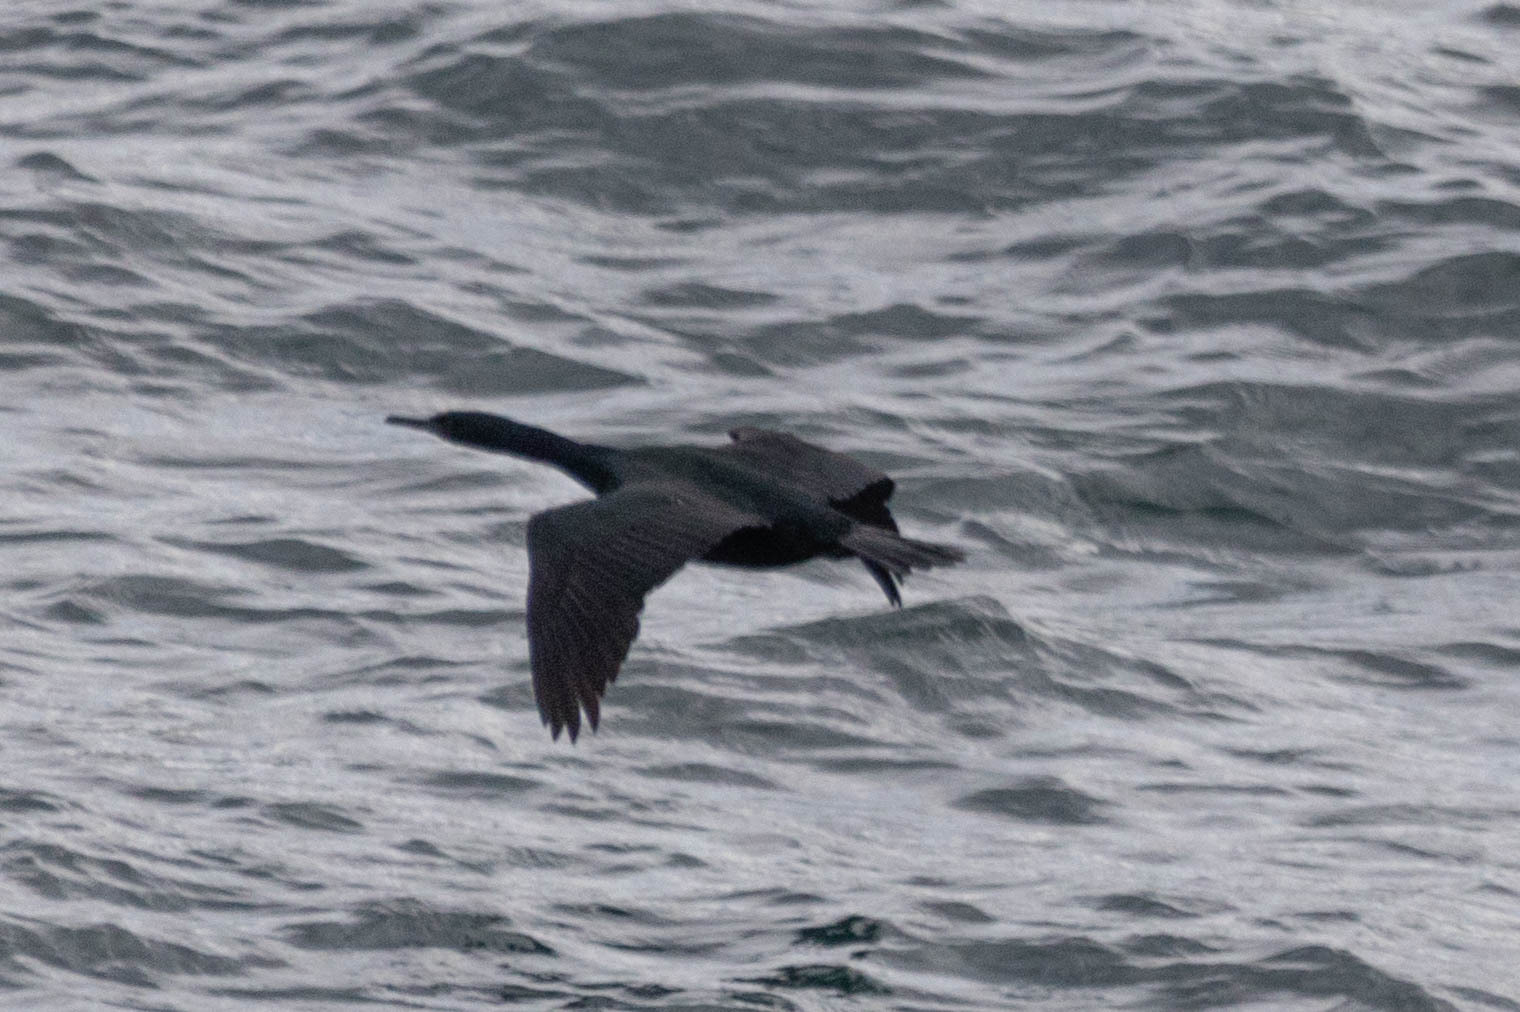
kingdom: Animalia
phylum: Chordata
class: Aves
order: Suliformes
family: Phalacrocoracidae
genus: Phalacrocorax
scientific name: Phalacrocorax pelagicus
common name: Pelagic cormorant
